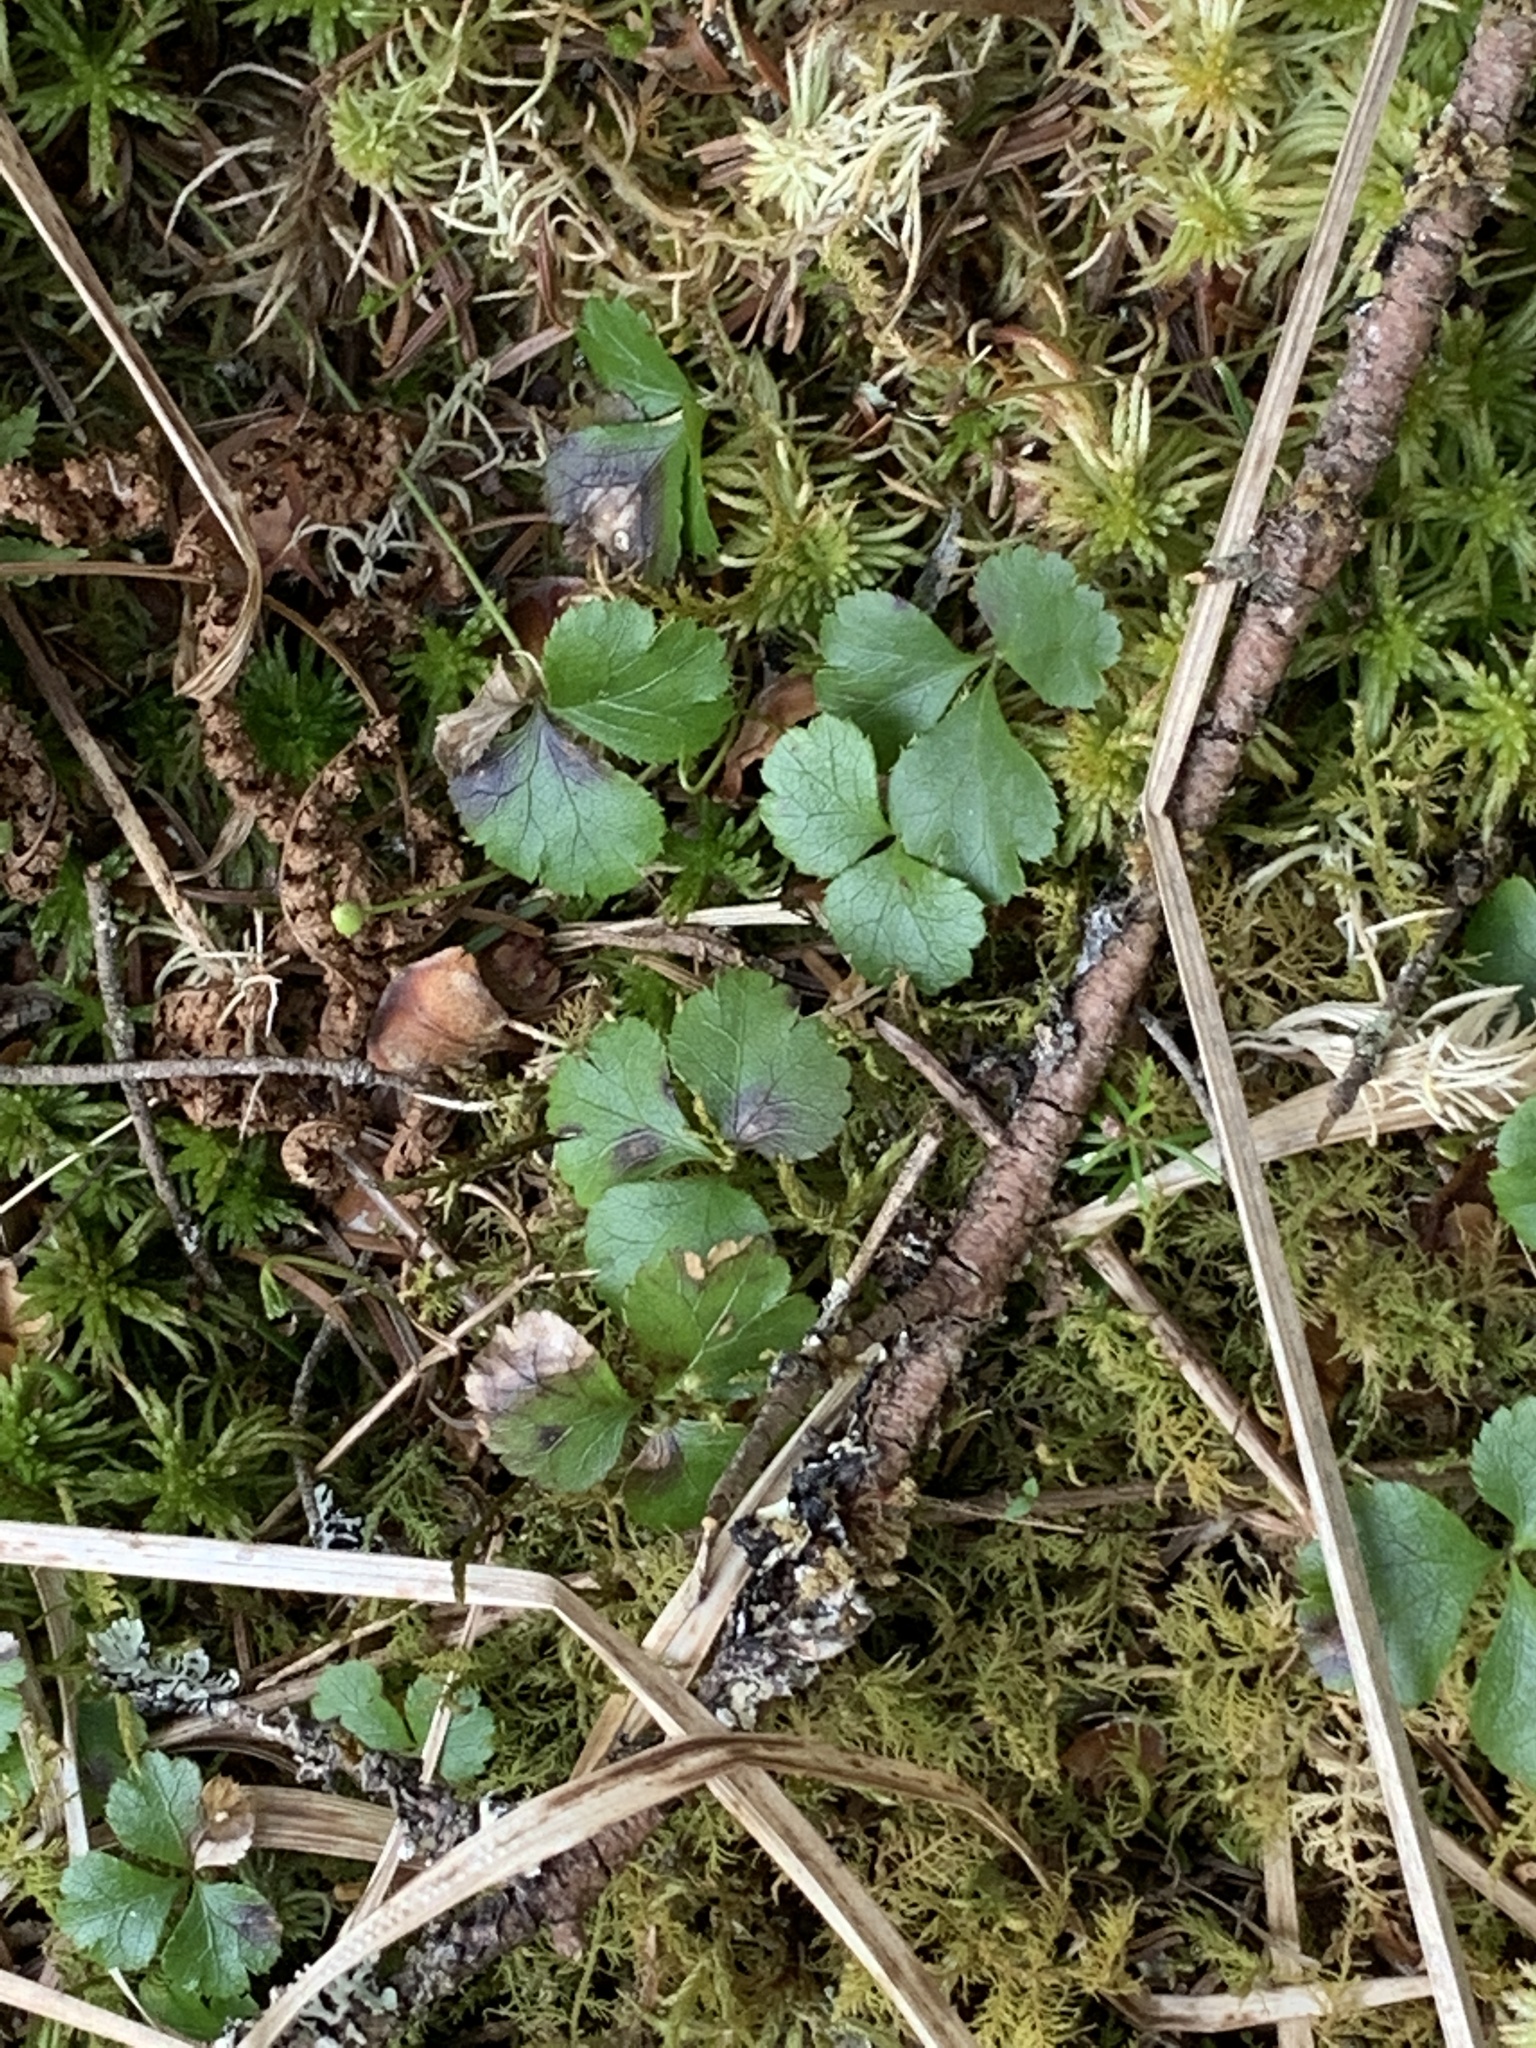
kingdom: Plantae
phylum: Tracheophyta
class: Magnoliopsida
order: Ranunculales
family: Ranunculaceae
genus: Coptis
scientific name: Coptis trifolia
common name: Canker-root
